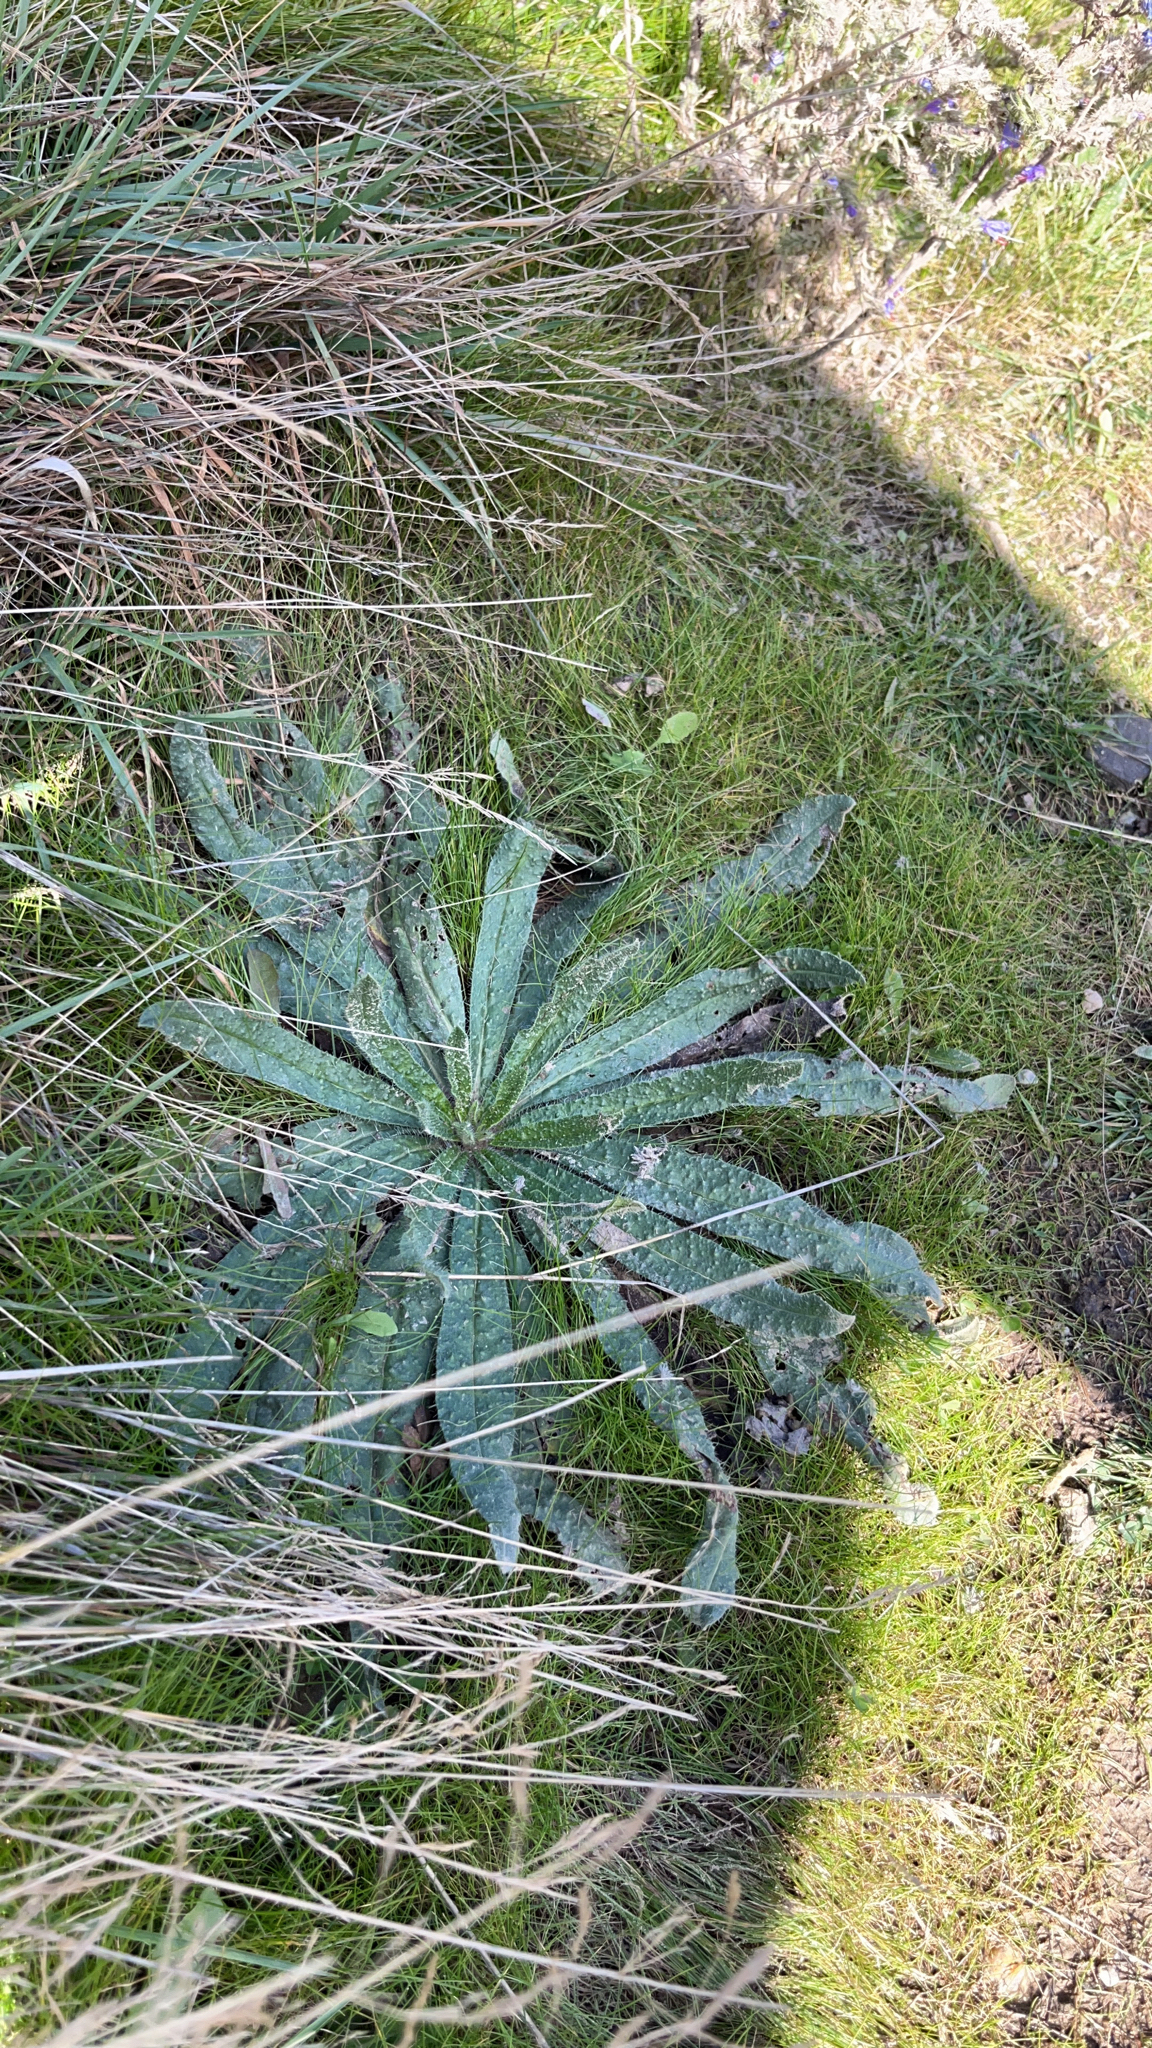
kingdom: Plantae
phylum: Tracheophyta
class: Magnoliopsida
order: Boraginales
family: Boraginaceae
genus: Echium
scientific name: Echium vulgare
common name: Common viper's bugloss
